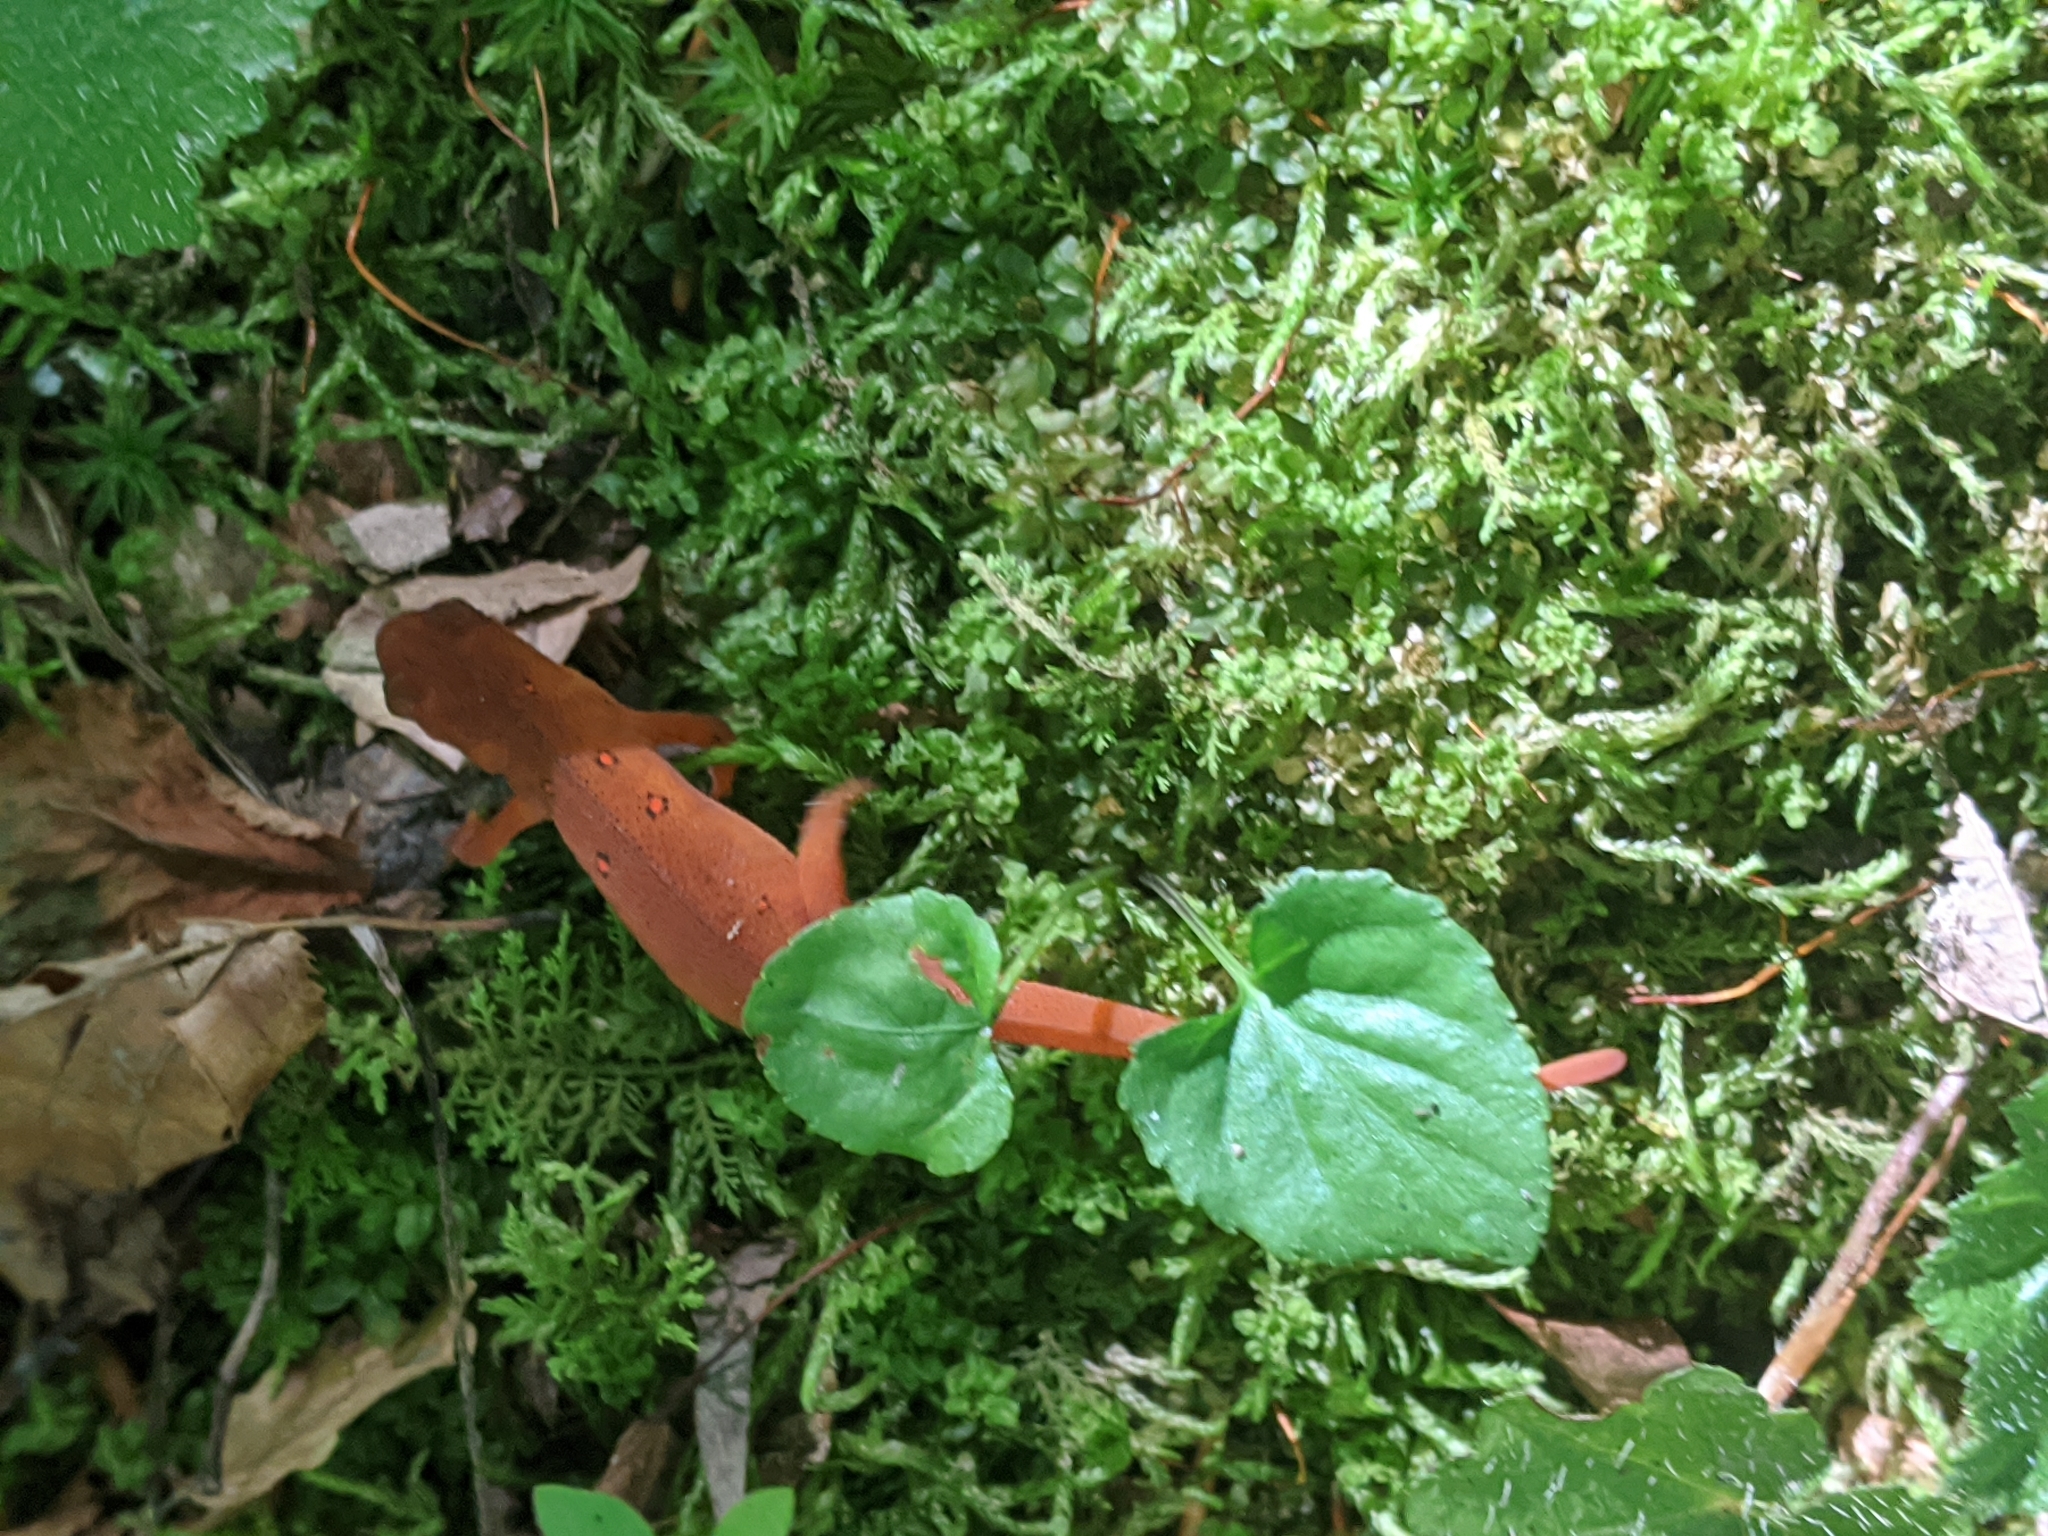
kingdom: Animalia
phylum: Chordata
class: Amphibia
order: Caudata
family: Salamandridae
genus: Notophthalmus
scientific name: Notophthalmus viridescens
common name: Eastern newt
